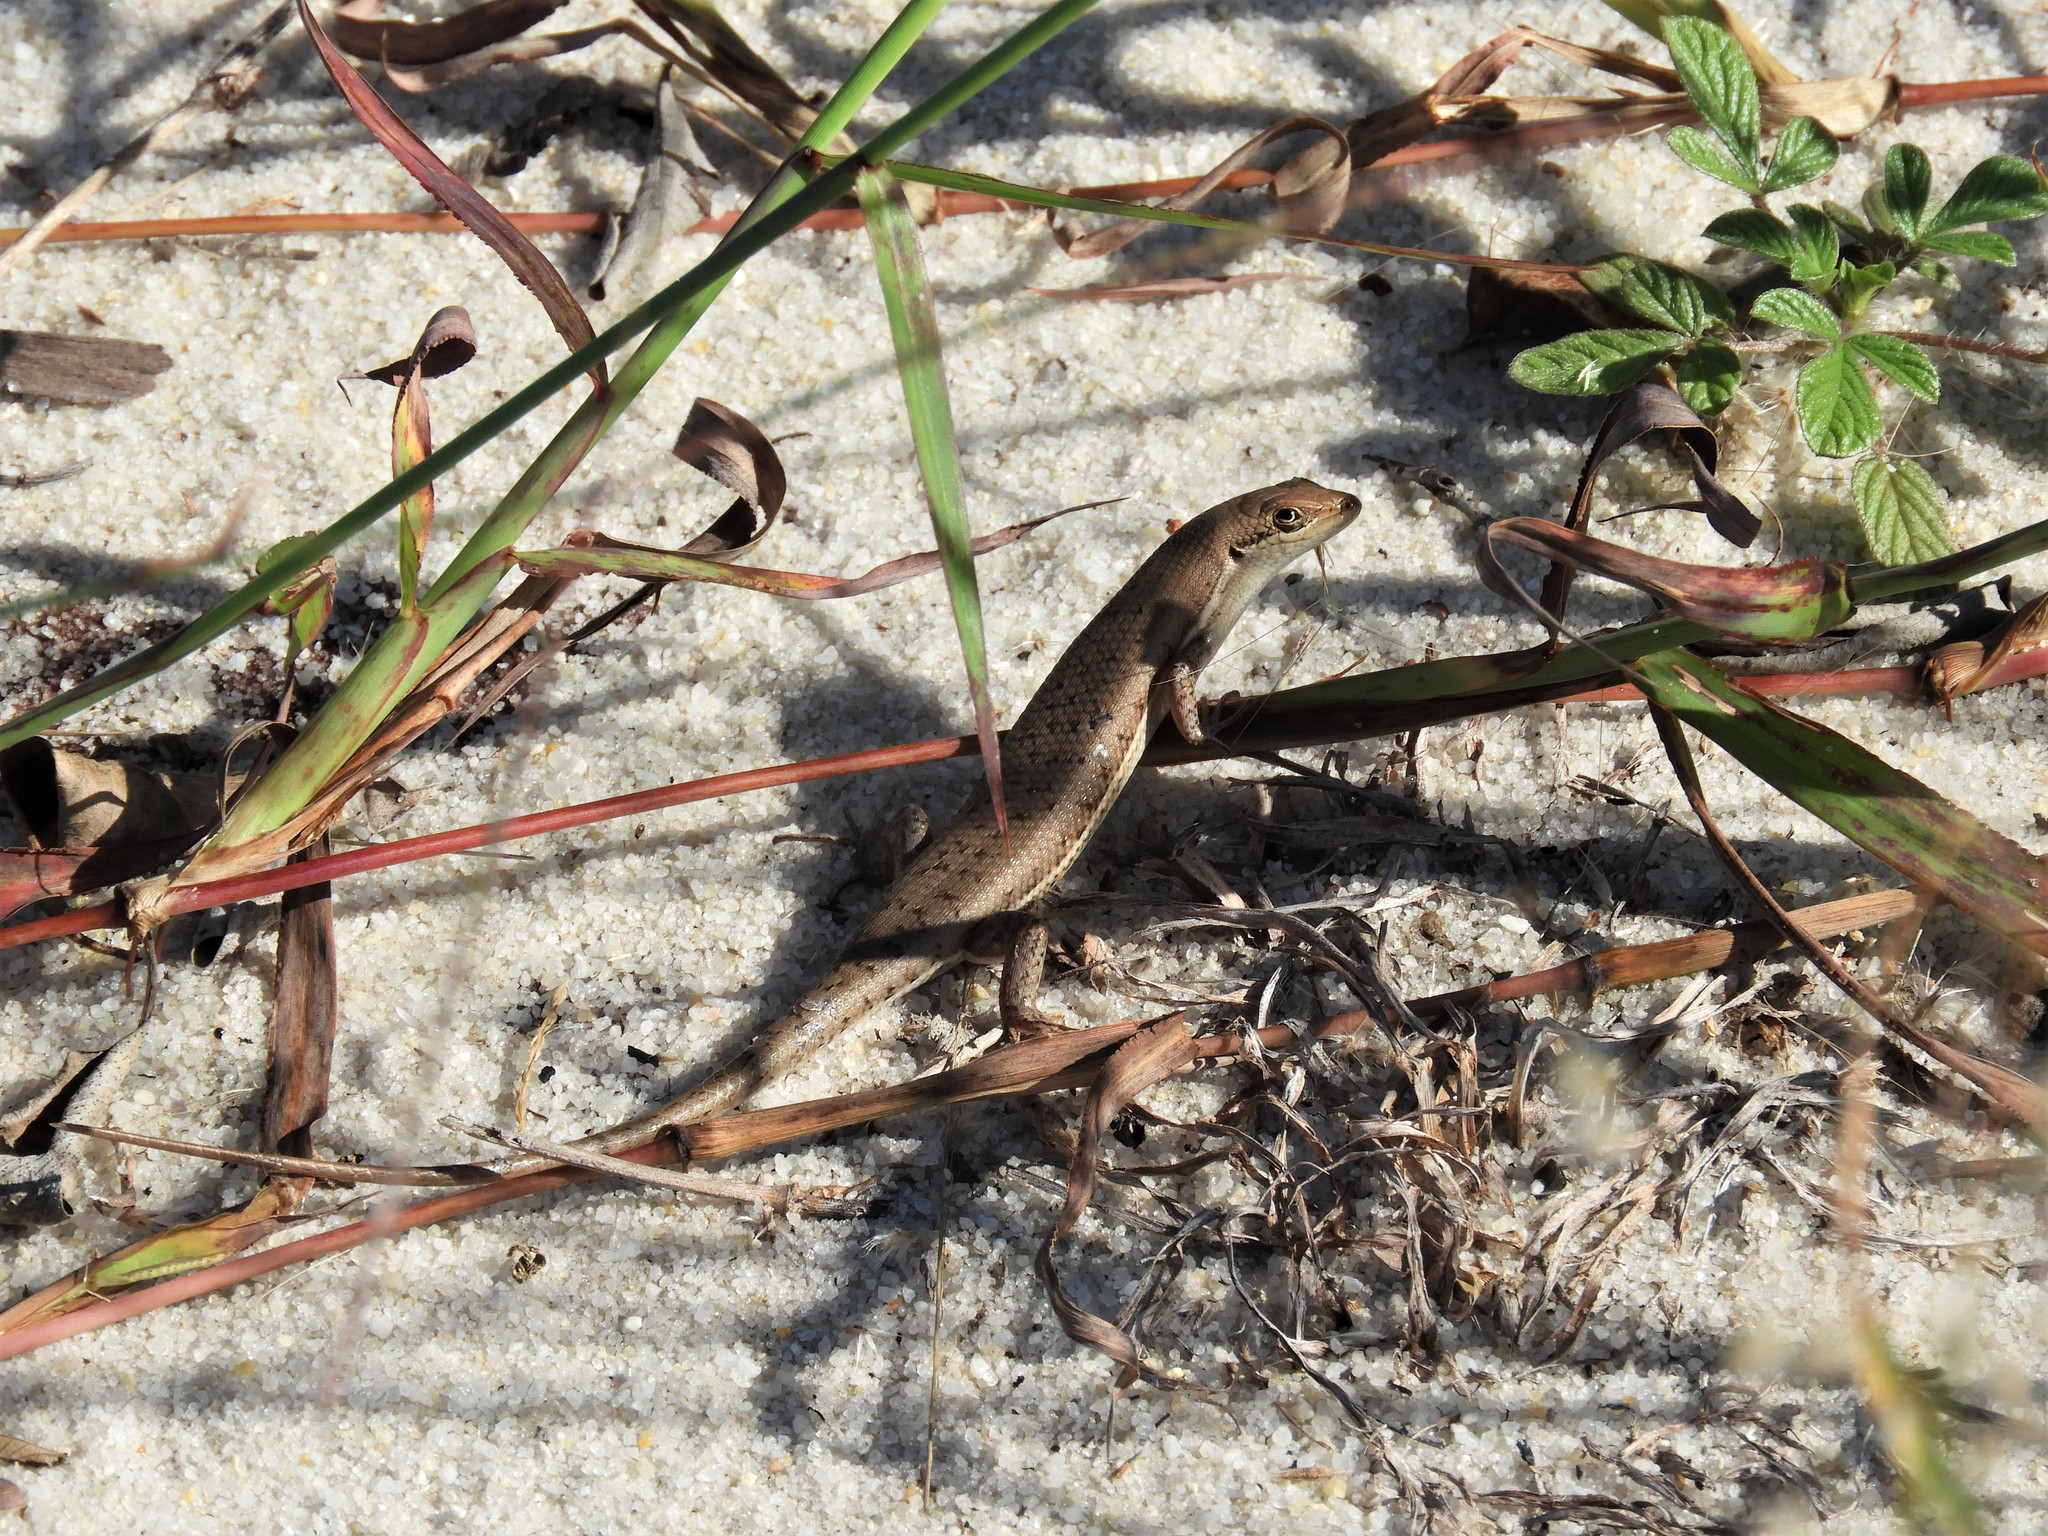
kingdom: Animalia
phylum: Chordata
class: Squamata
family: Scincidae
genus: Trachylepis
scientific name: Trachylepis varia
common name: Eastern variable skink
